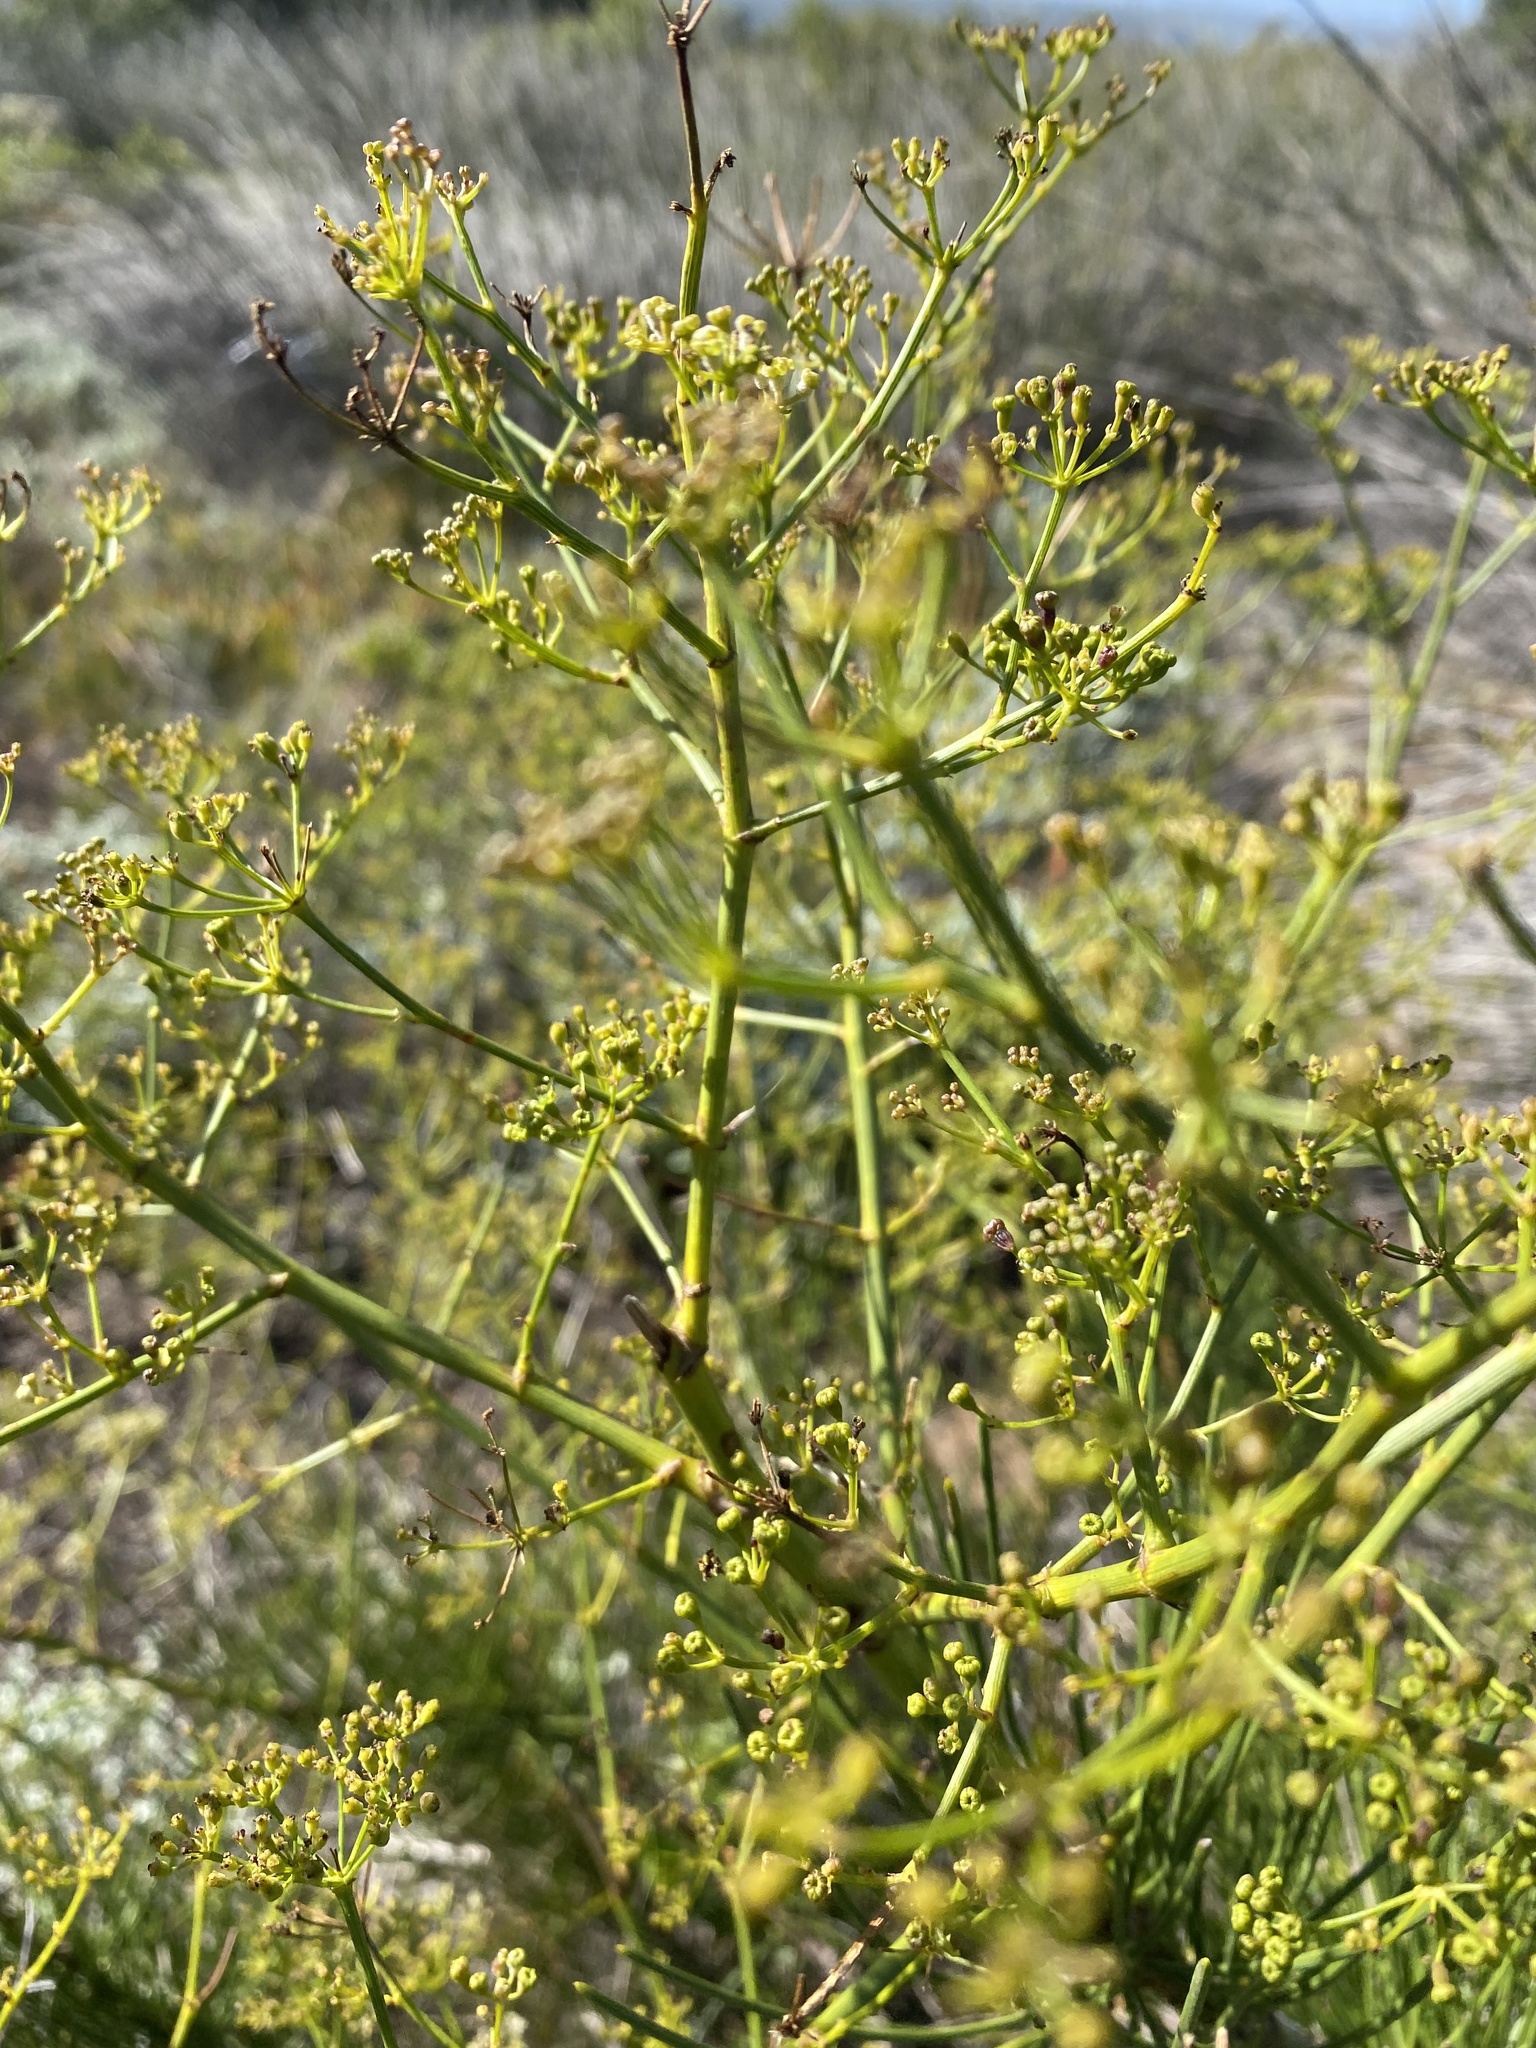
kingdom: Plantae
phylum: Tracheophyta
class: Magnoliopsida
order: Apiales
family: Apiaceae
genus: Anginon
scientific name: Anginon difforme
